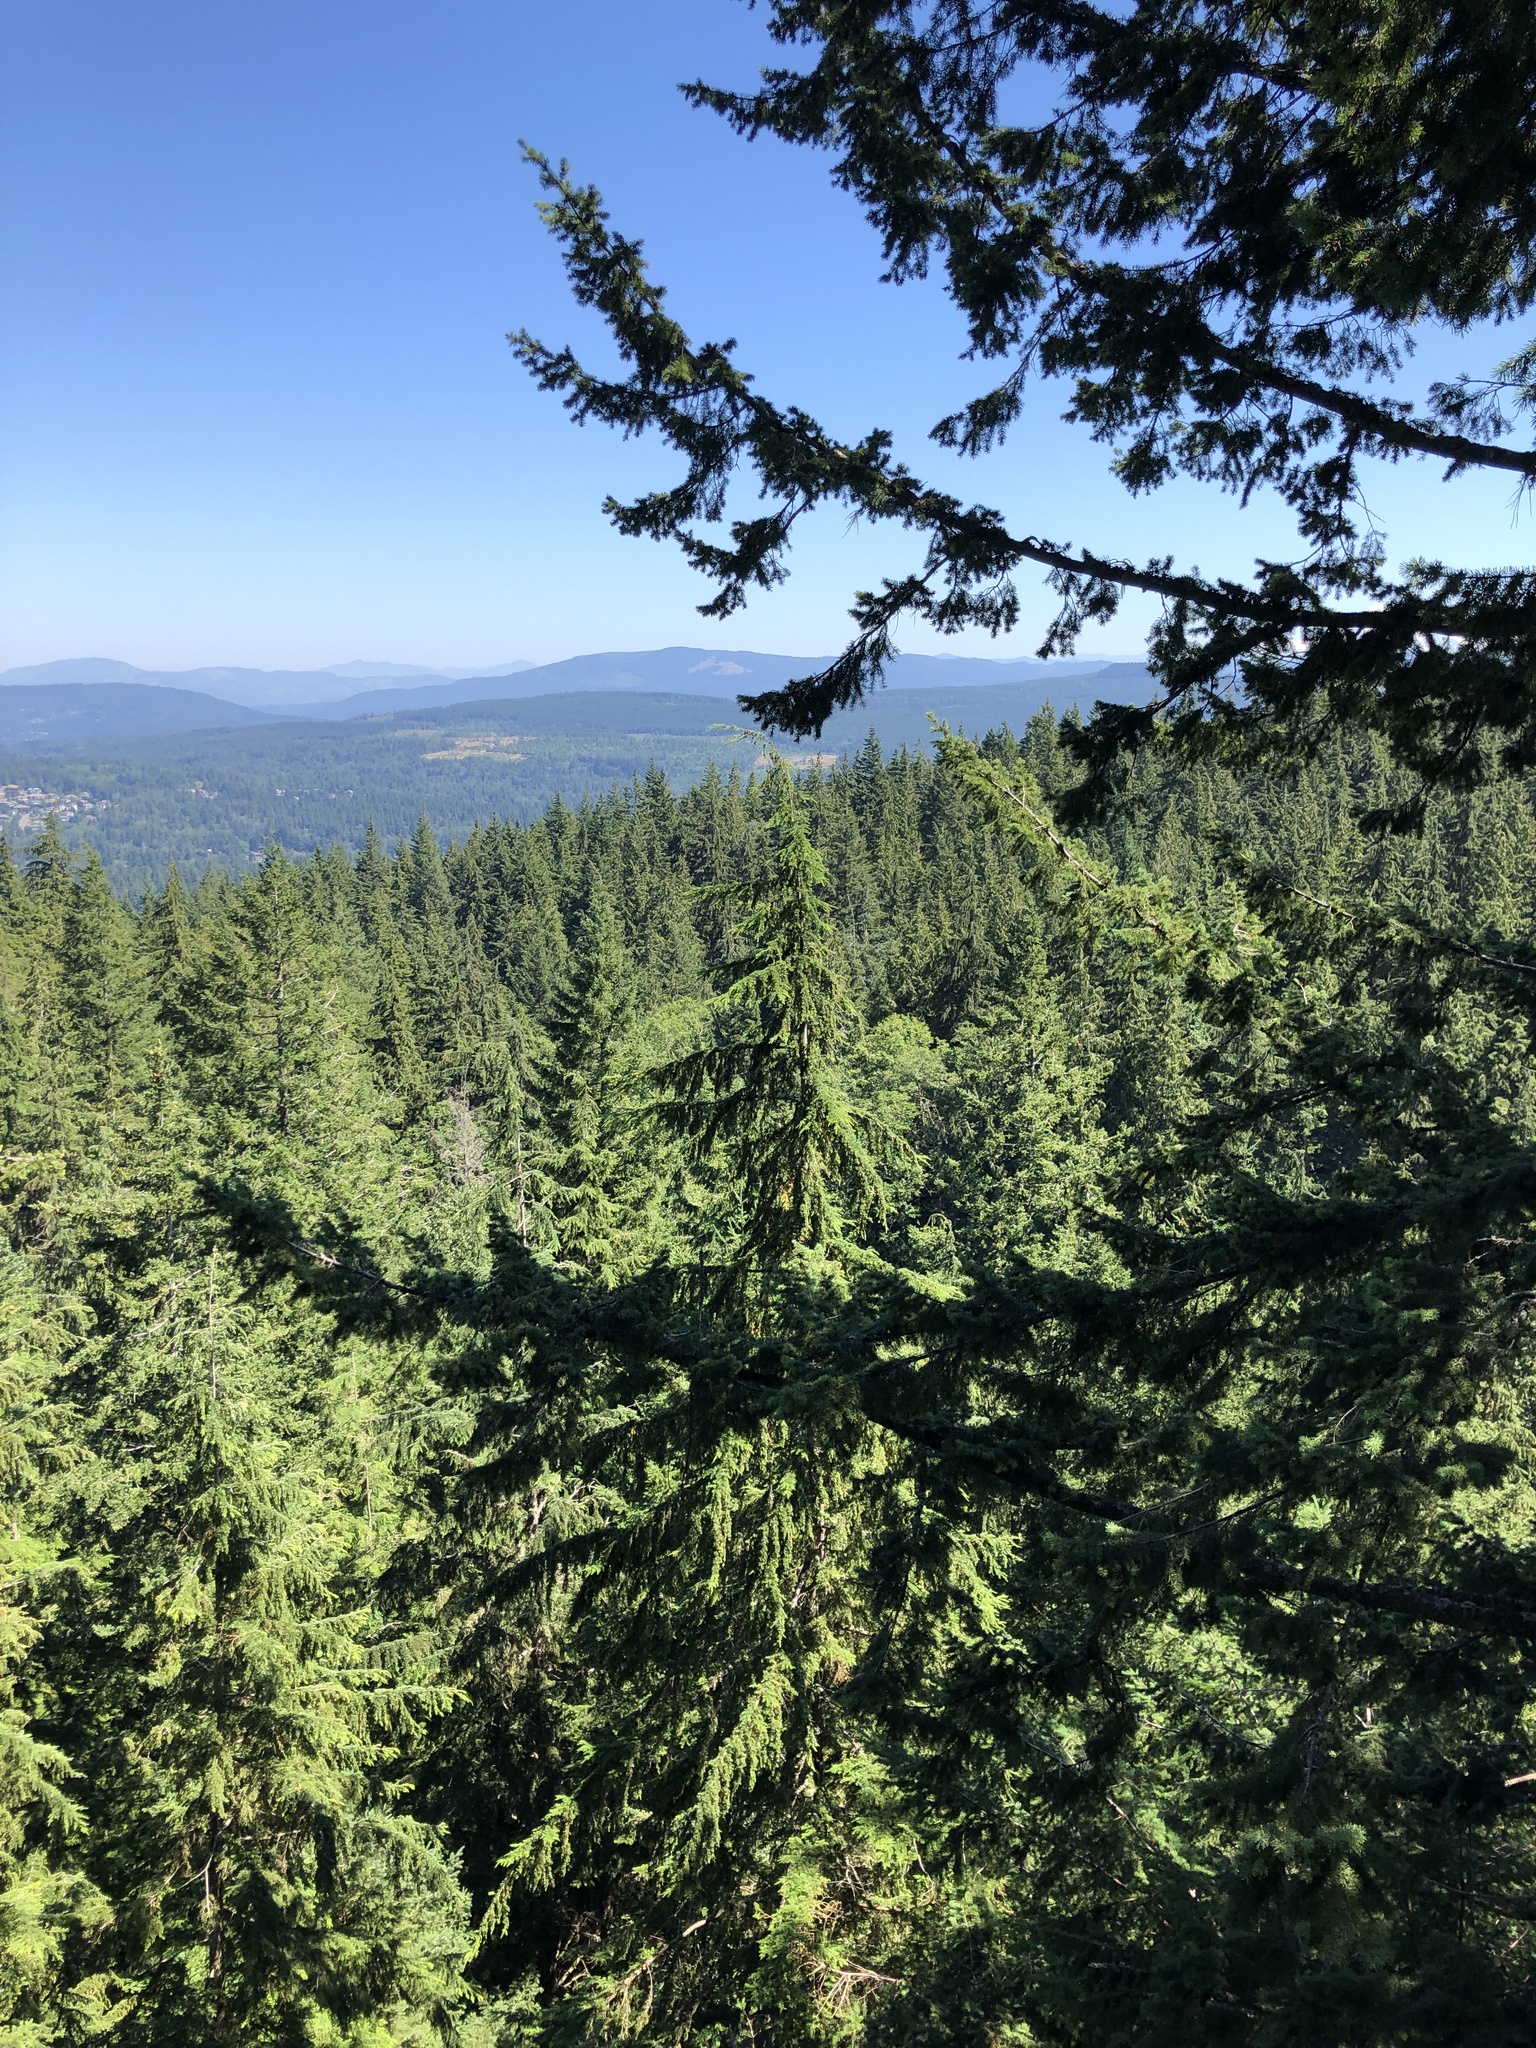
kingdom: Plantae
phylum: Tracheophyta
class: Pinopsida
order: Pinales
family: Pinaceae
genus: Tsuga
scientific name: Tsuga heterophylla
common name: Western hemlock
